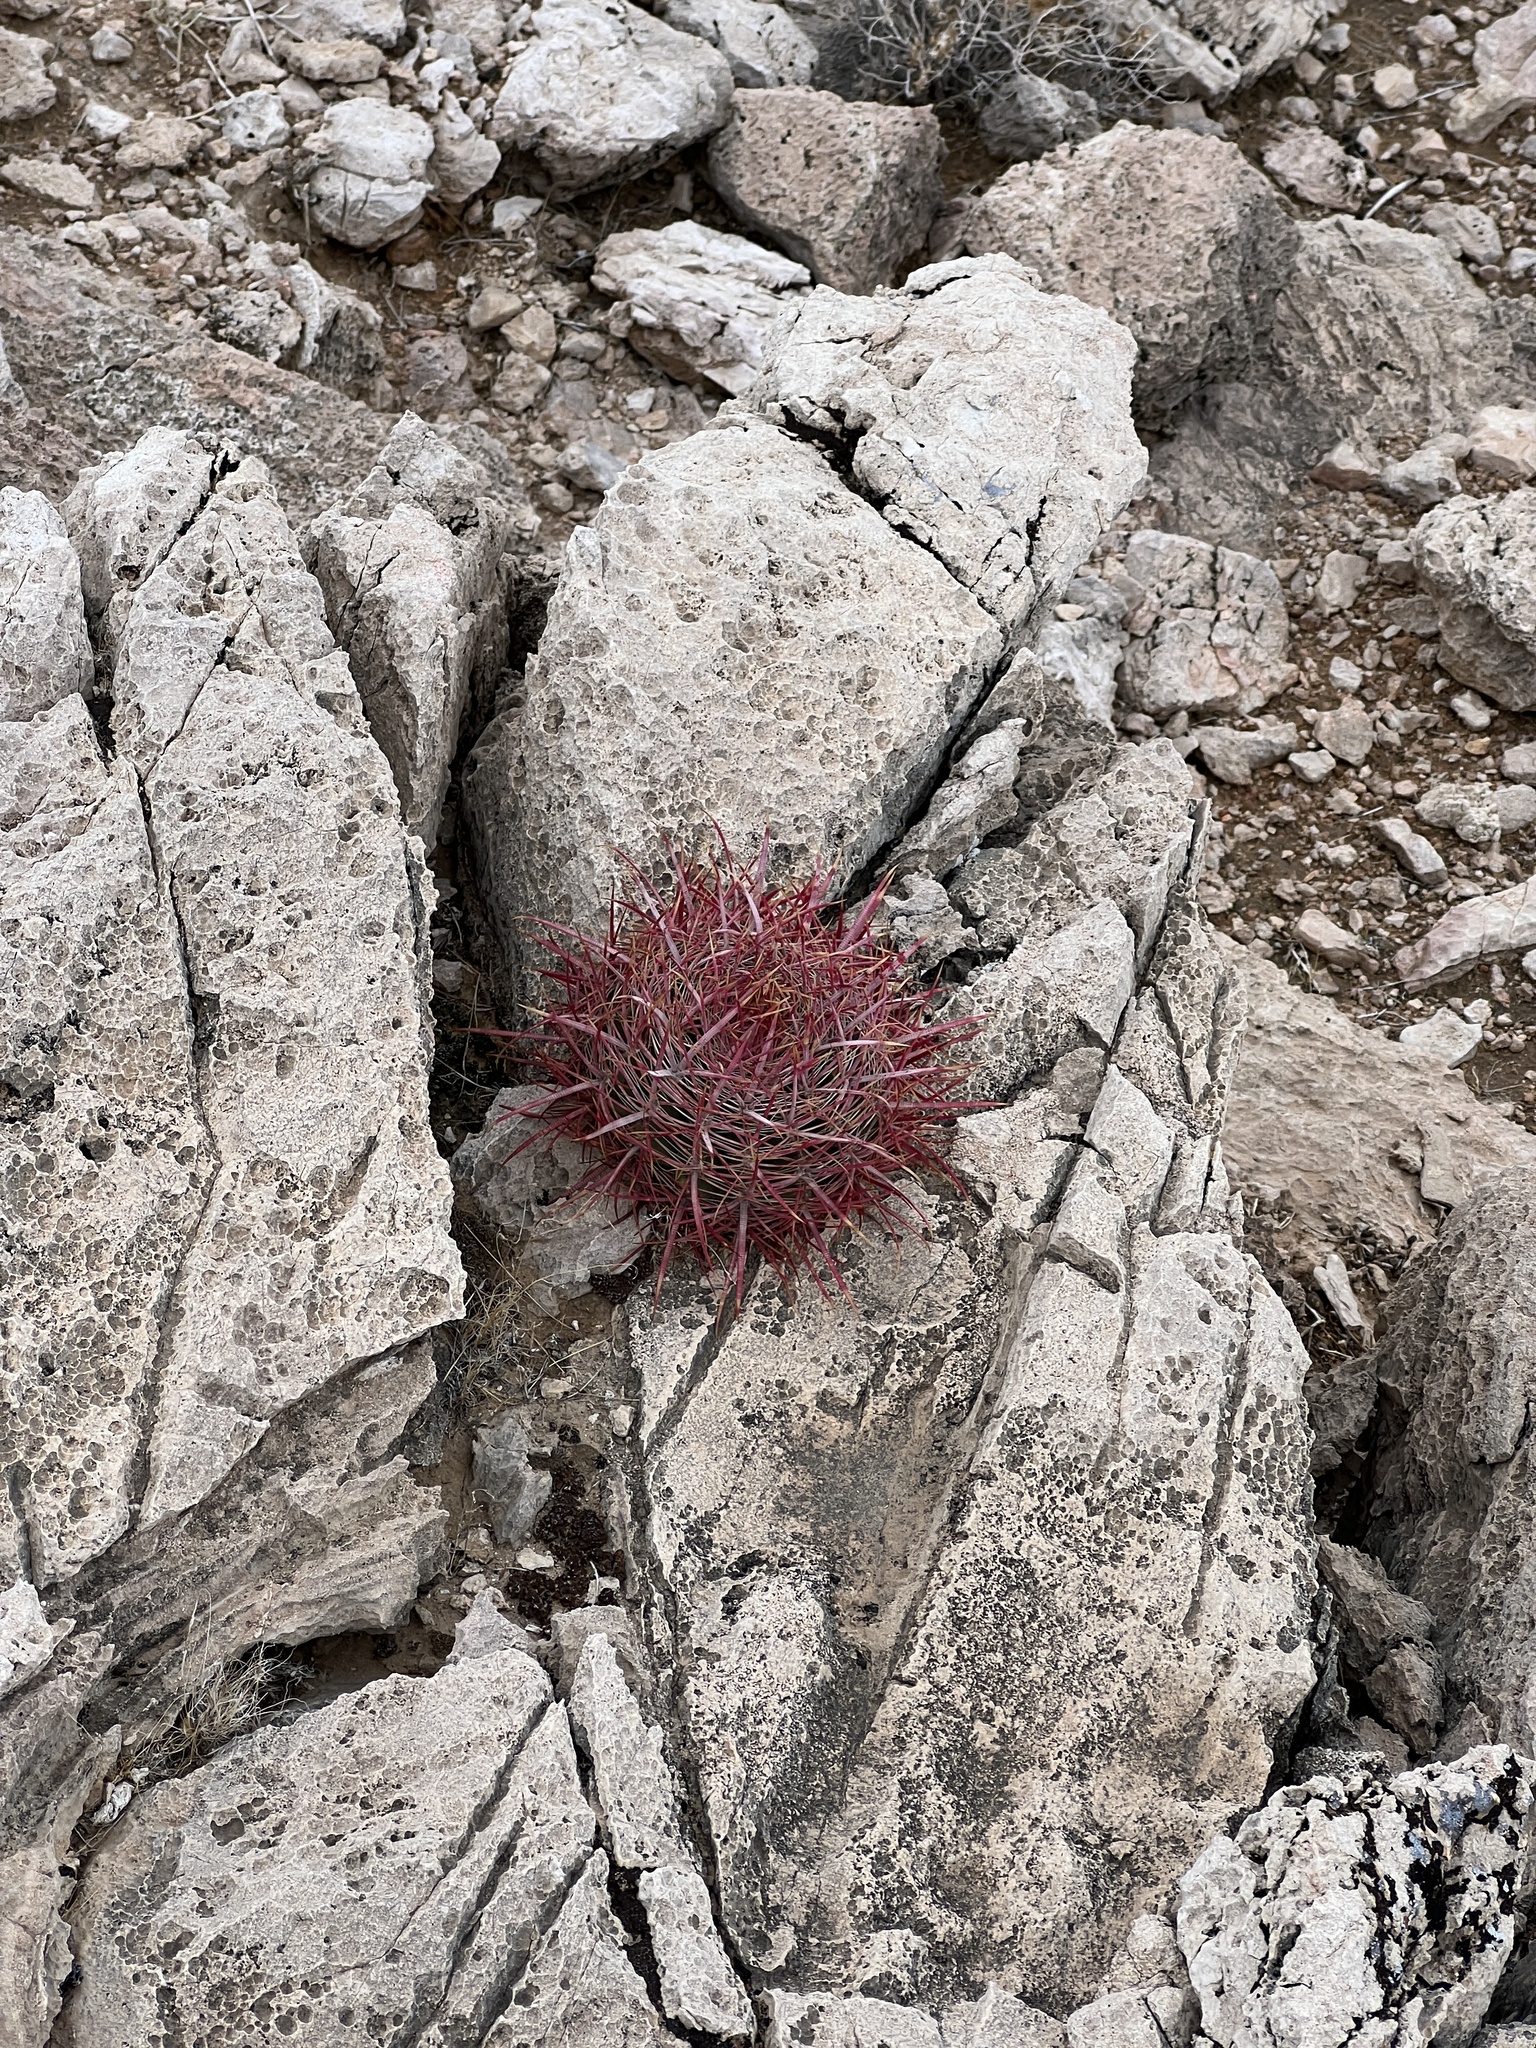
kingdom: Plantae
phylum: Tracheophyta
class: Magnoliopsida
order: Caryophyllales
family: Cactaceae
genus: Ferocactus
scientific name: Ferocactus cylindraceus
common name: California barrel cactus
